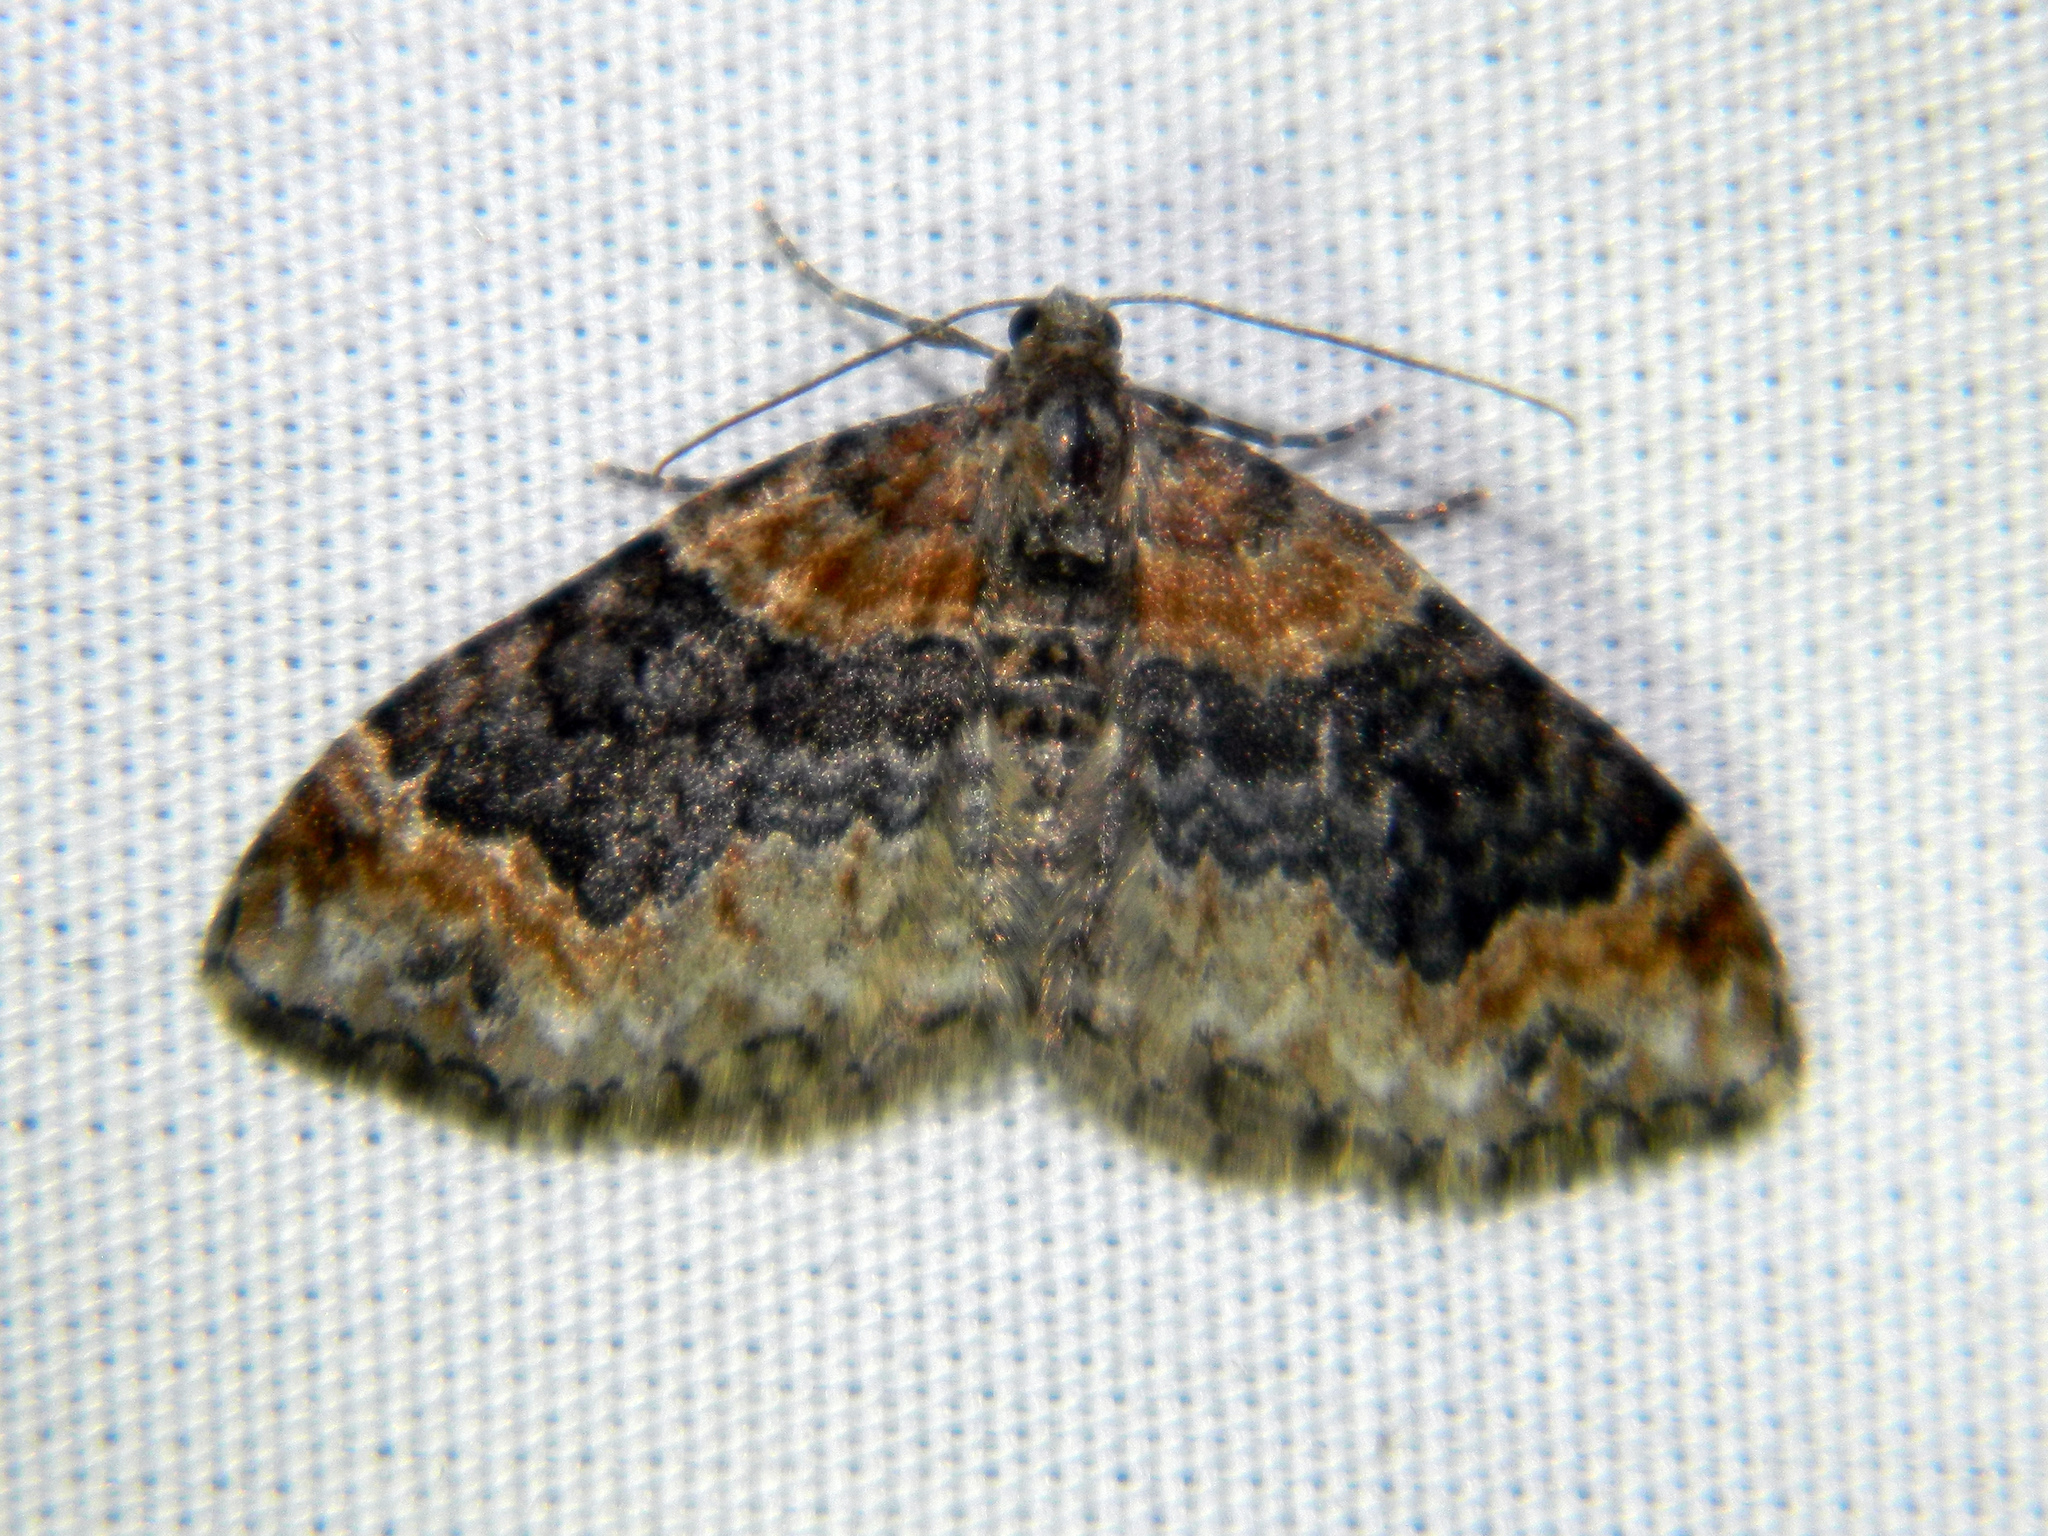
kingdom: Animalia
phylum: Arthropoda
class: Insecta
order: Lepidoptera
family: Geometridae
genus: Xanthorhoe
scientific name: Xanthorhoe ferrugata
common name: Dark-barred twin-spot carpet
